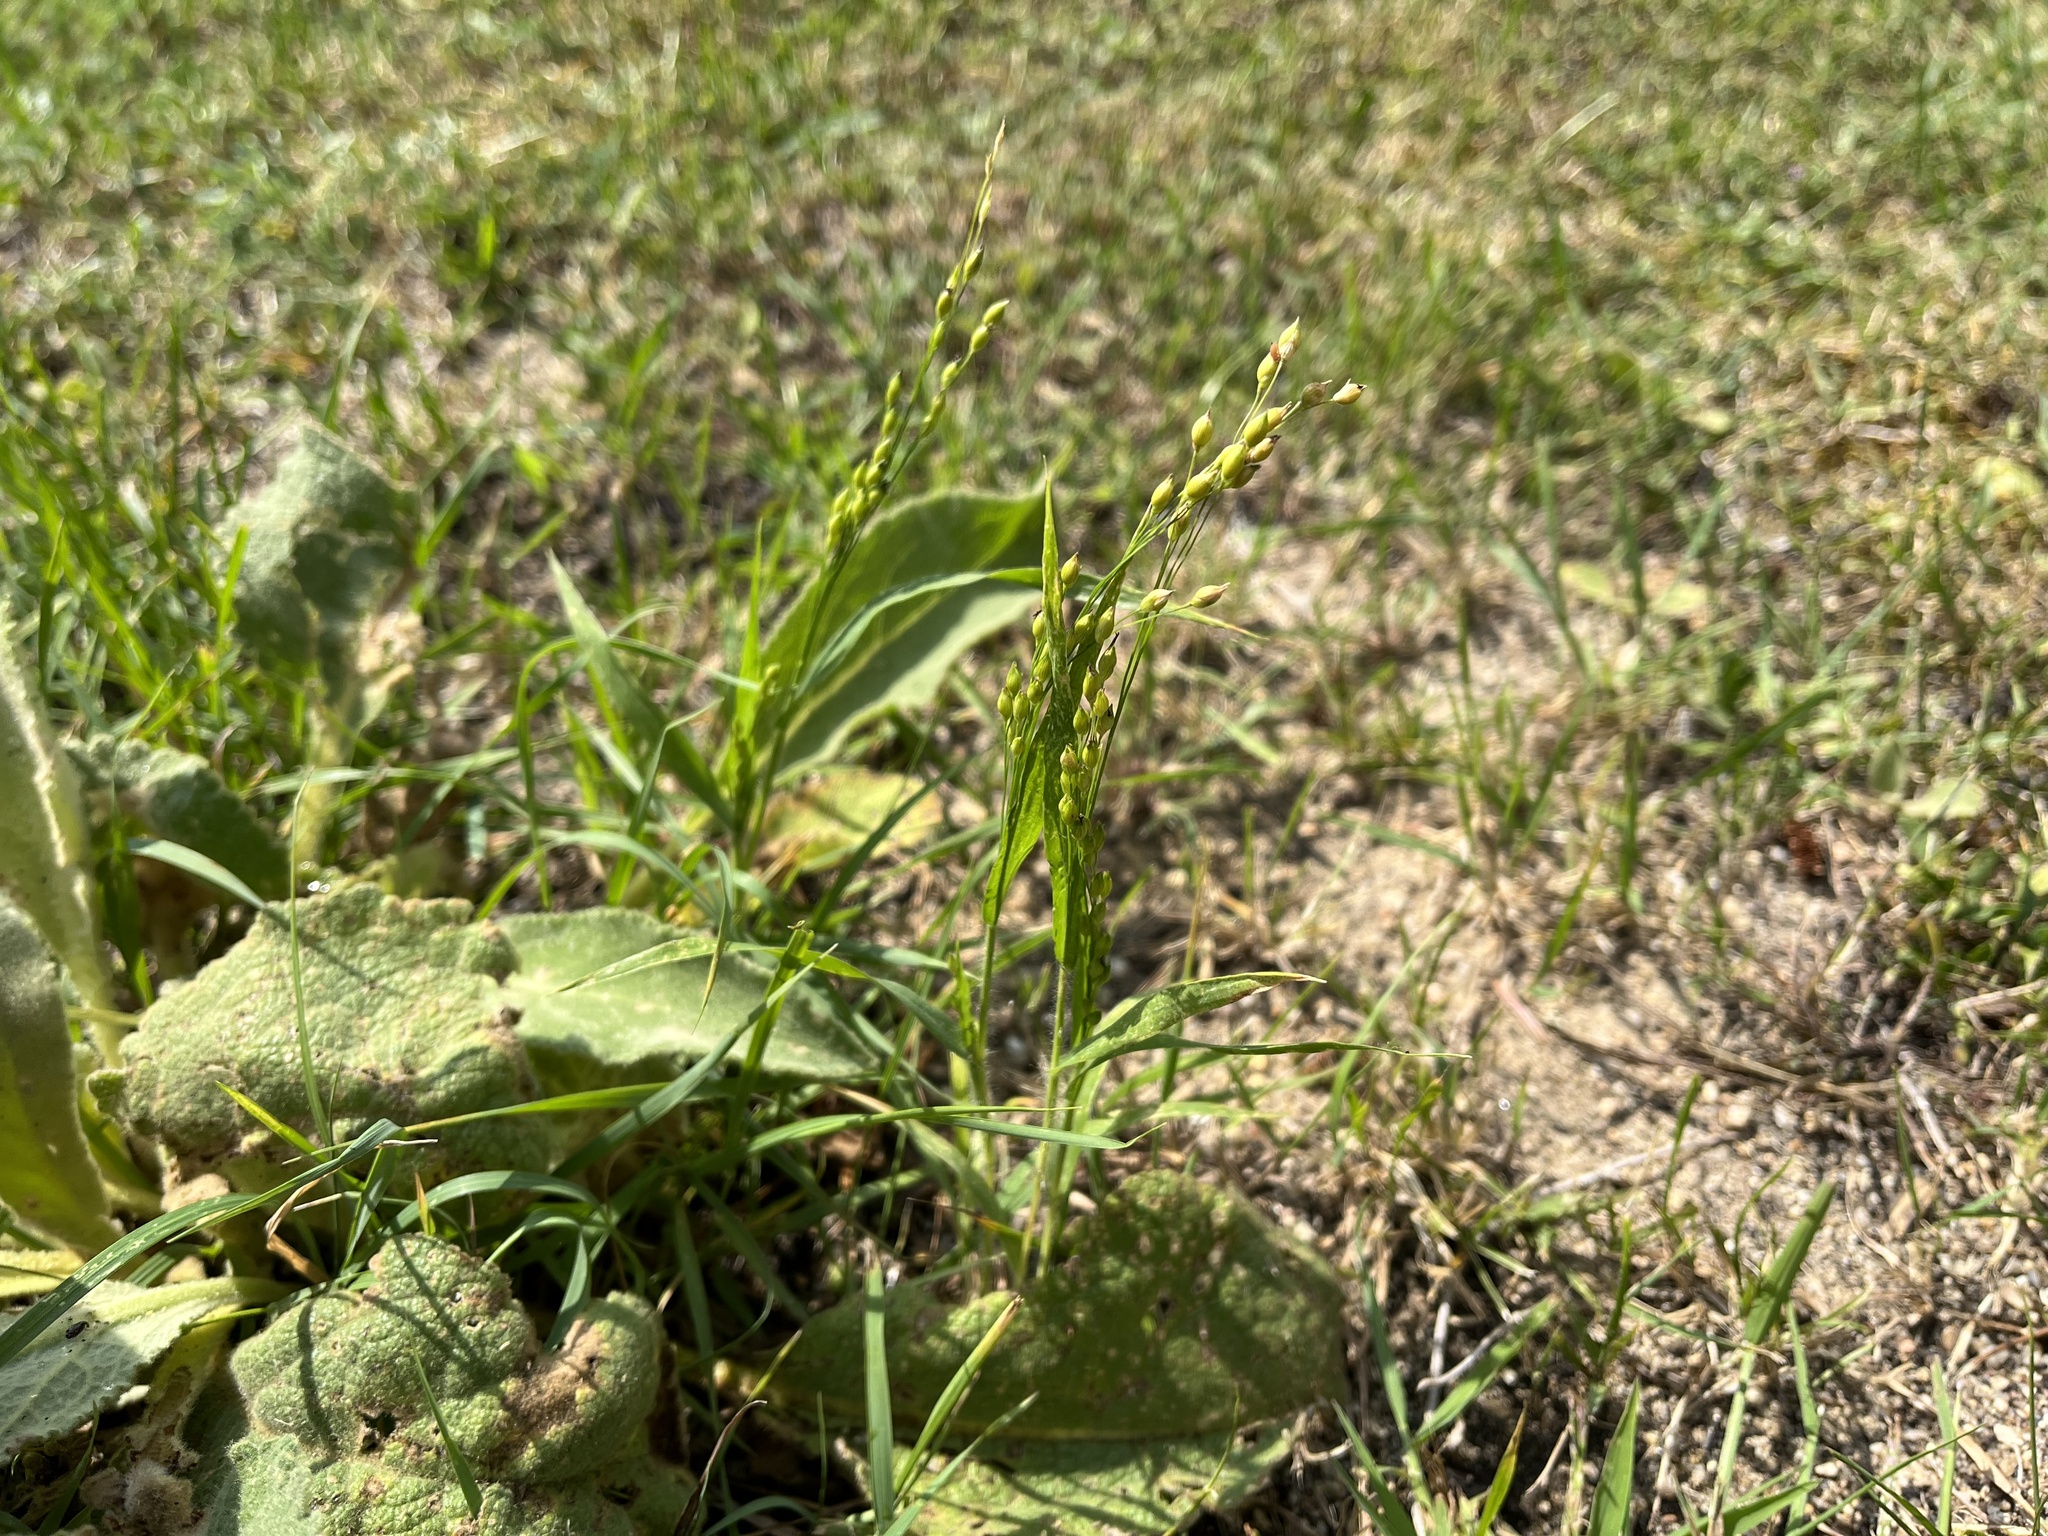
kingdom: Plantae
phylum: Tracheophyta
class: Liliopsida
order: Poales
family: Poaceae
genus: Panicum
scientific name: Panicum miliaceum
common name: Common millet
